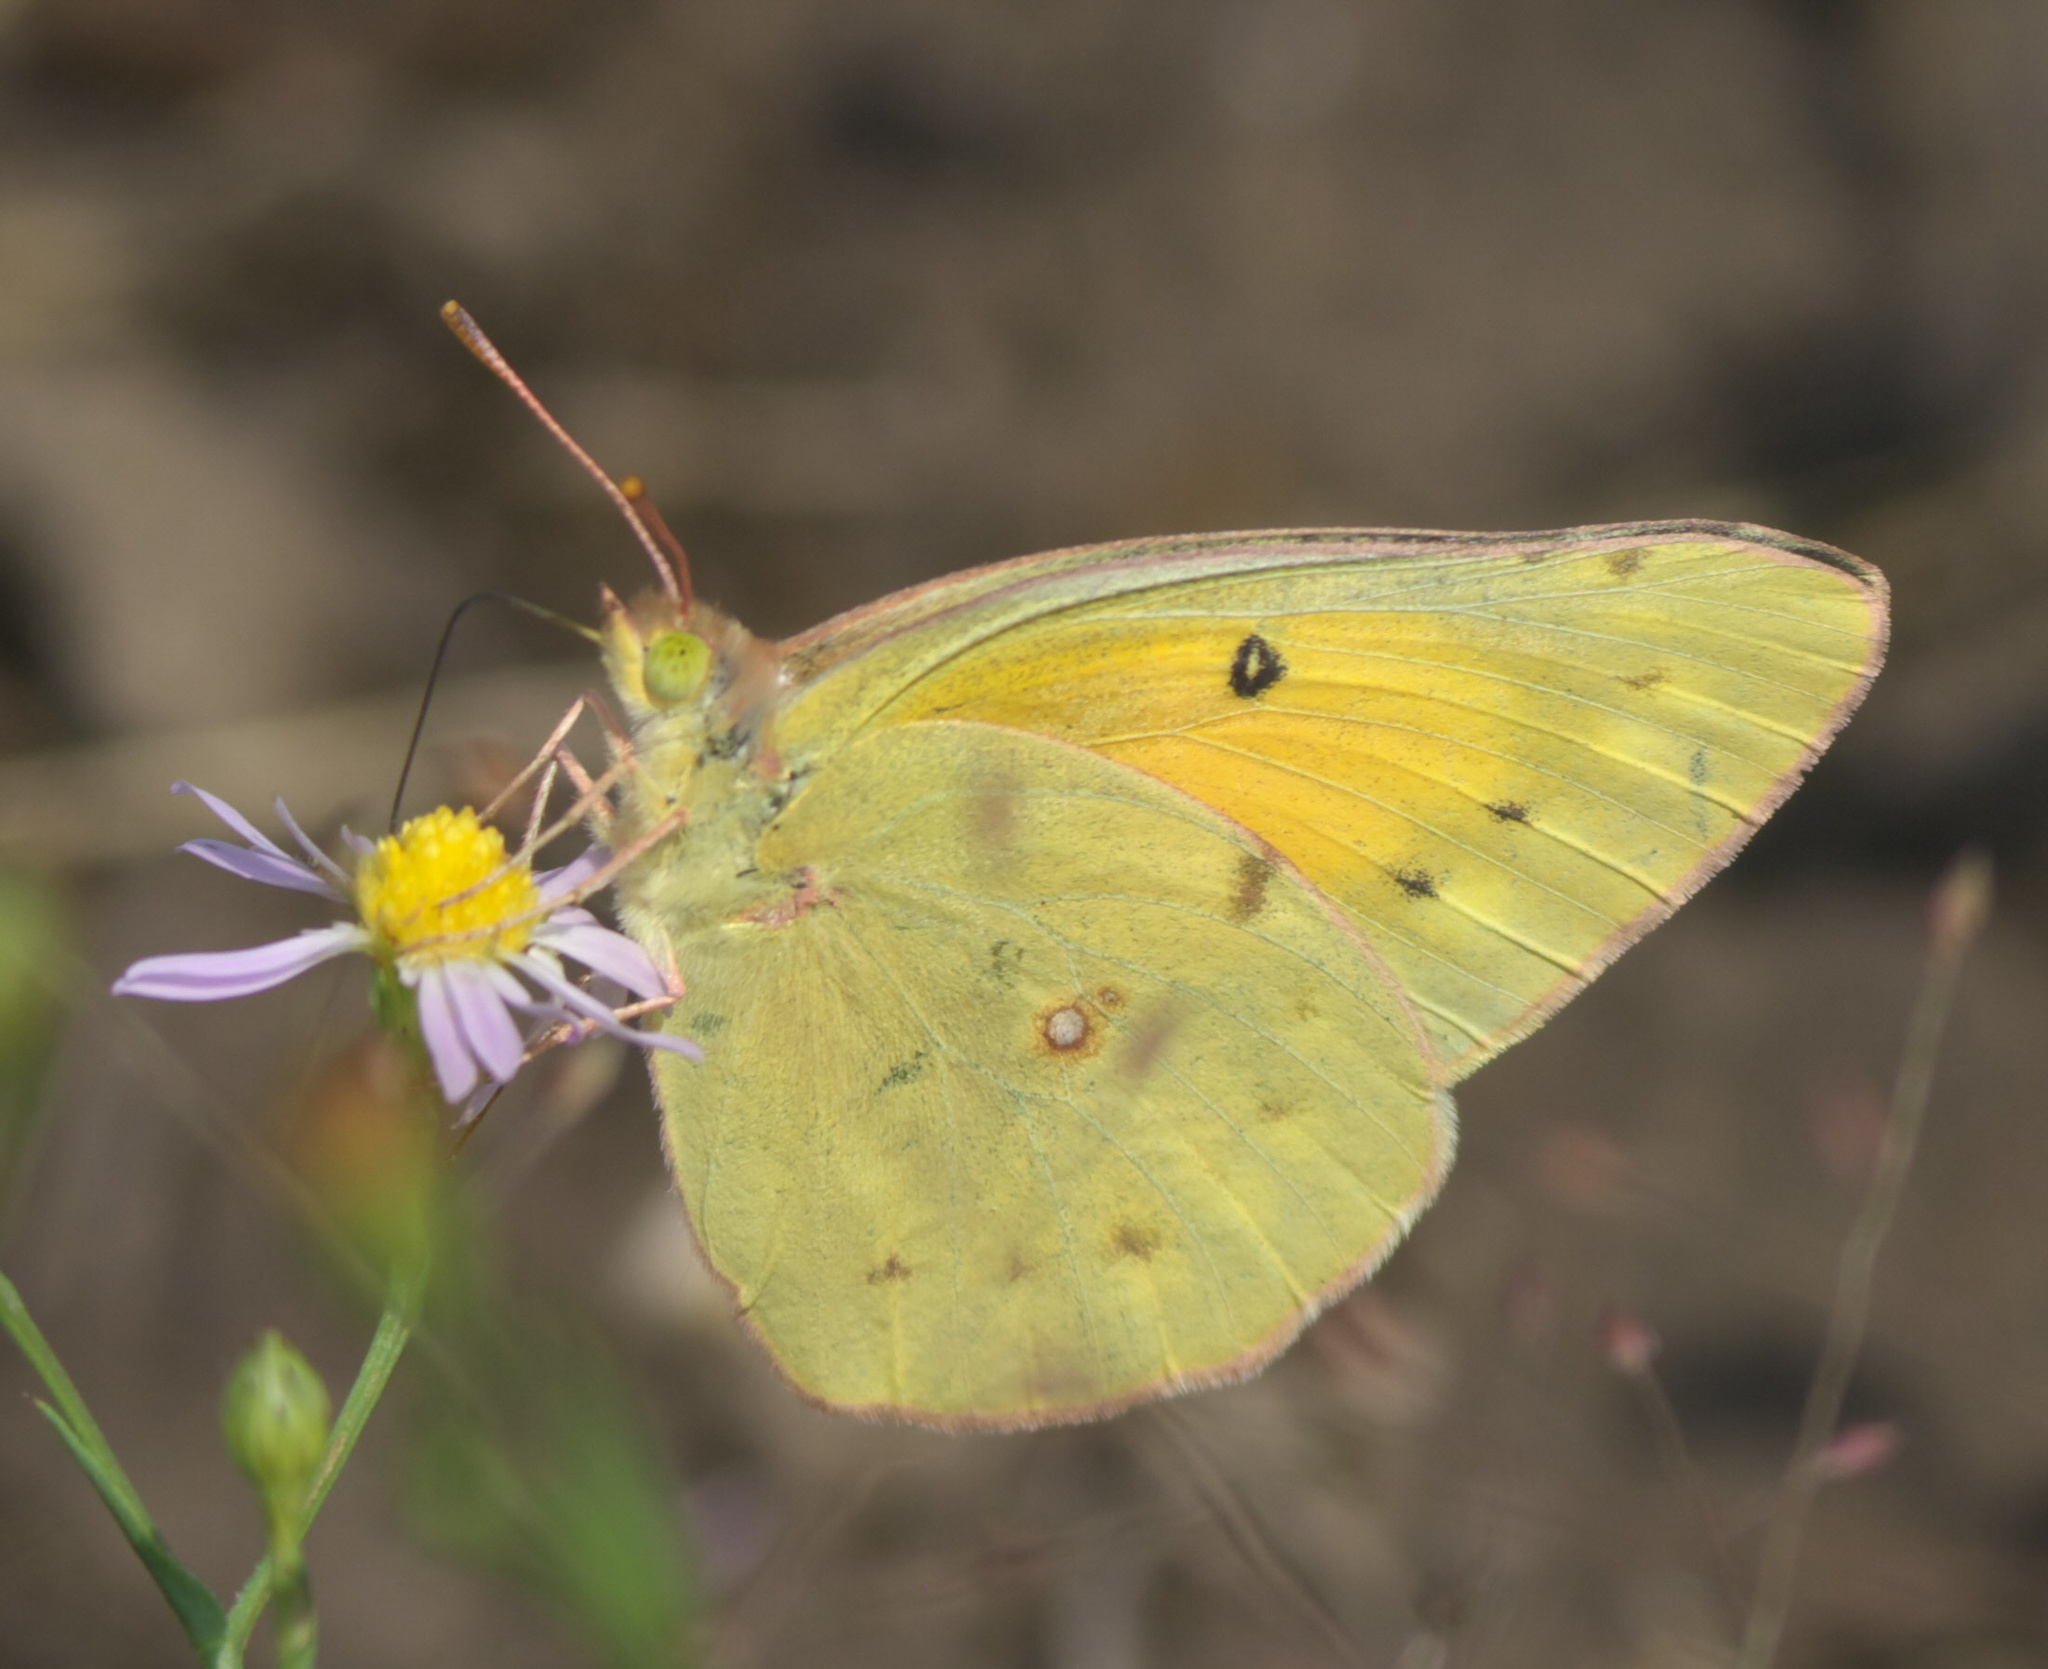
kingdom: Animalia
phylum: Arthropoda
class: Insecta
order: Lepidoptera
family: Pieridae
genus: Colias
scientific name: Colias eurytheme
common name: Alfalfa butterfly
